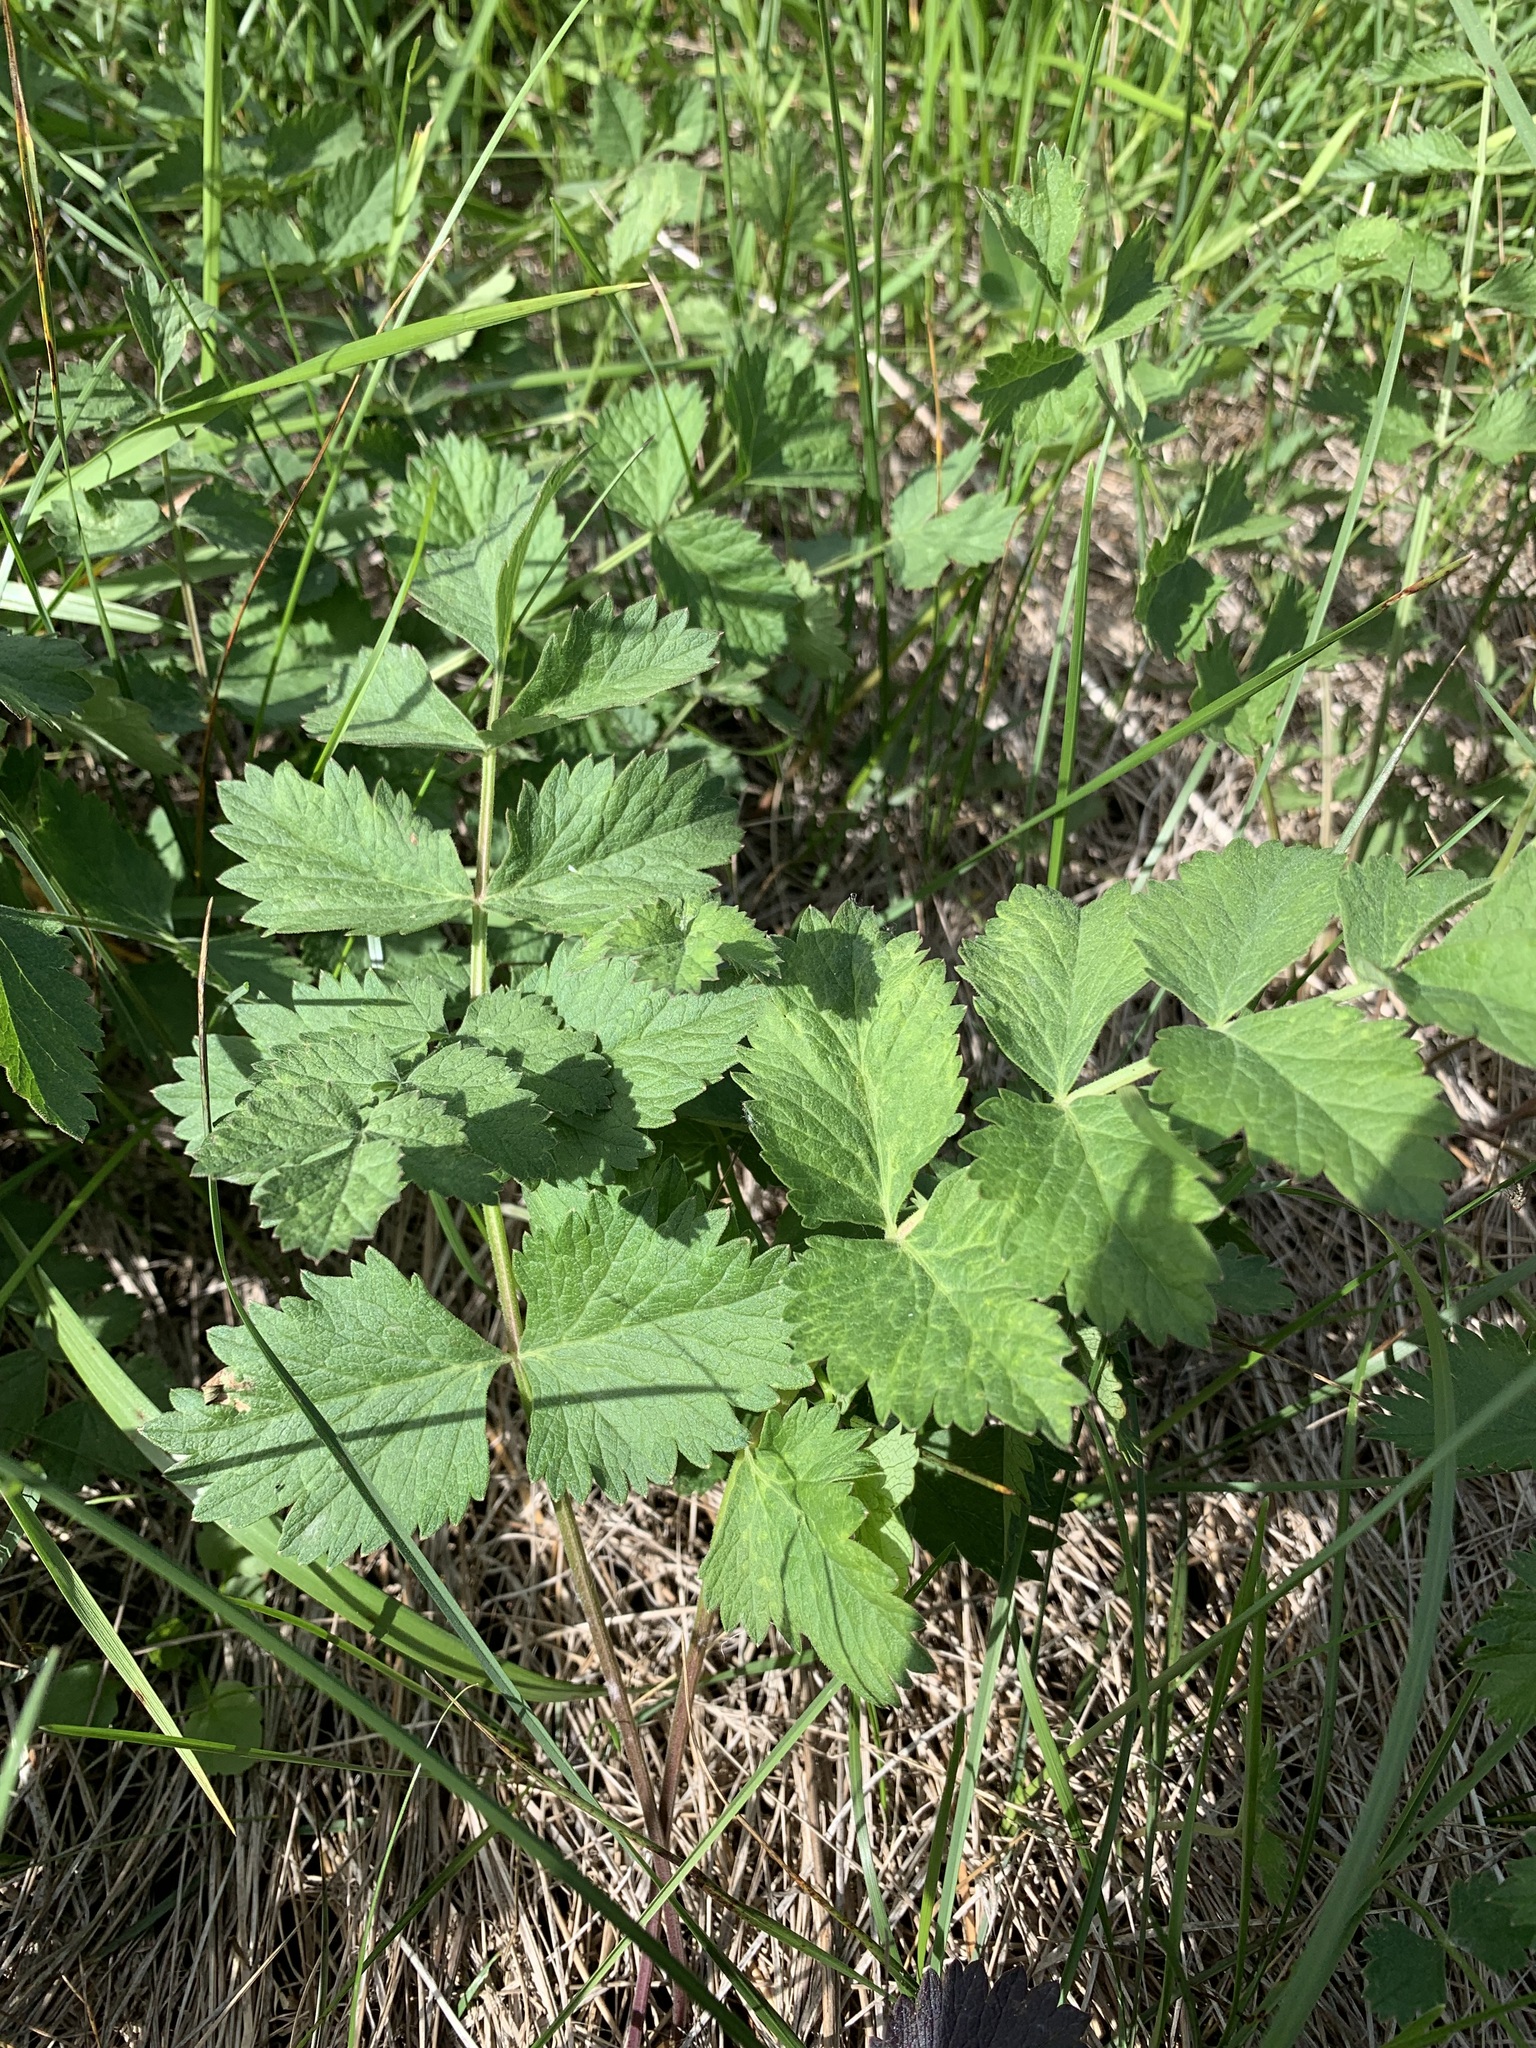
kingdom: Plantae
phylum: Tracheophyta
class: Magnoliopsida
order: Apiales
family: Apiaceae
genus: Pimpinella
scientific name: Pimpinella saxifraga
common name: Burnet-saxifrage
